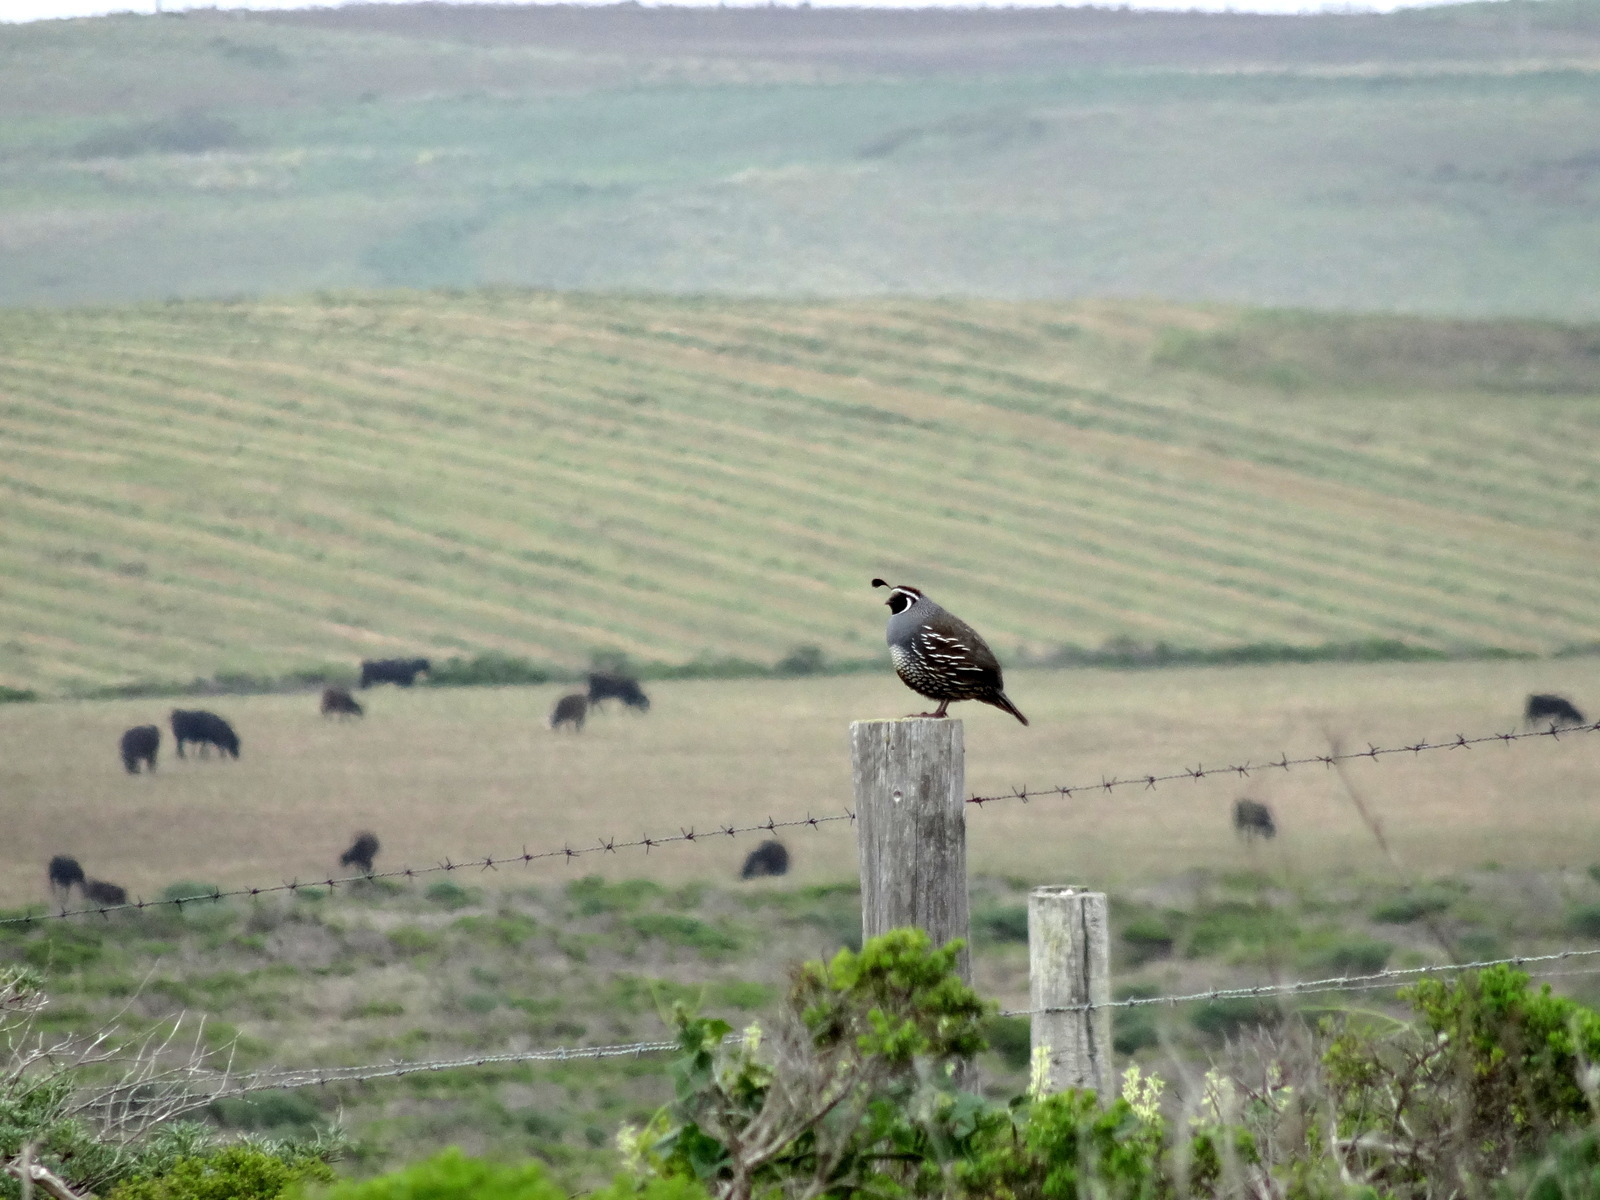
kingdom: Animalia
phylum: Chordata
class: Aves
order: Galliformes
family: Odontophoridae
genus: Callipepla
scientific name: Callipepla californica
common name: California quail
